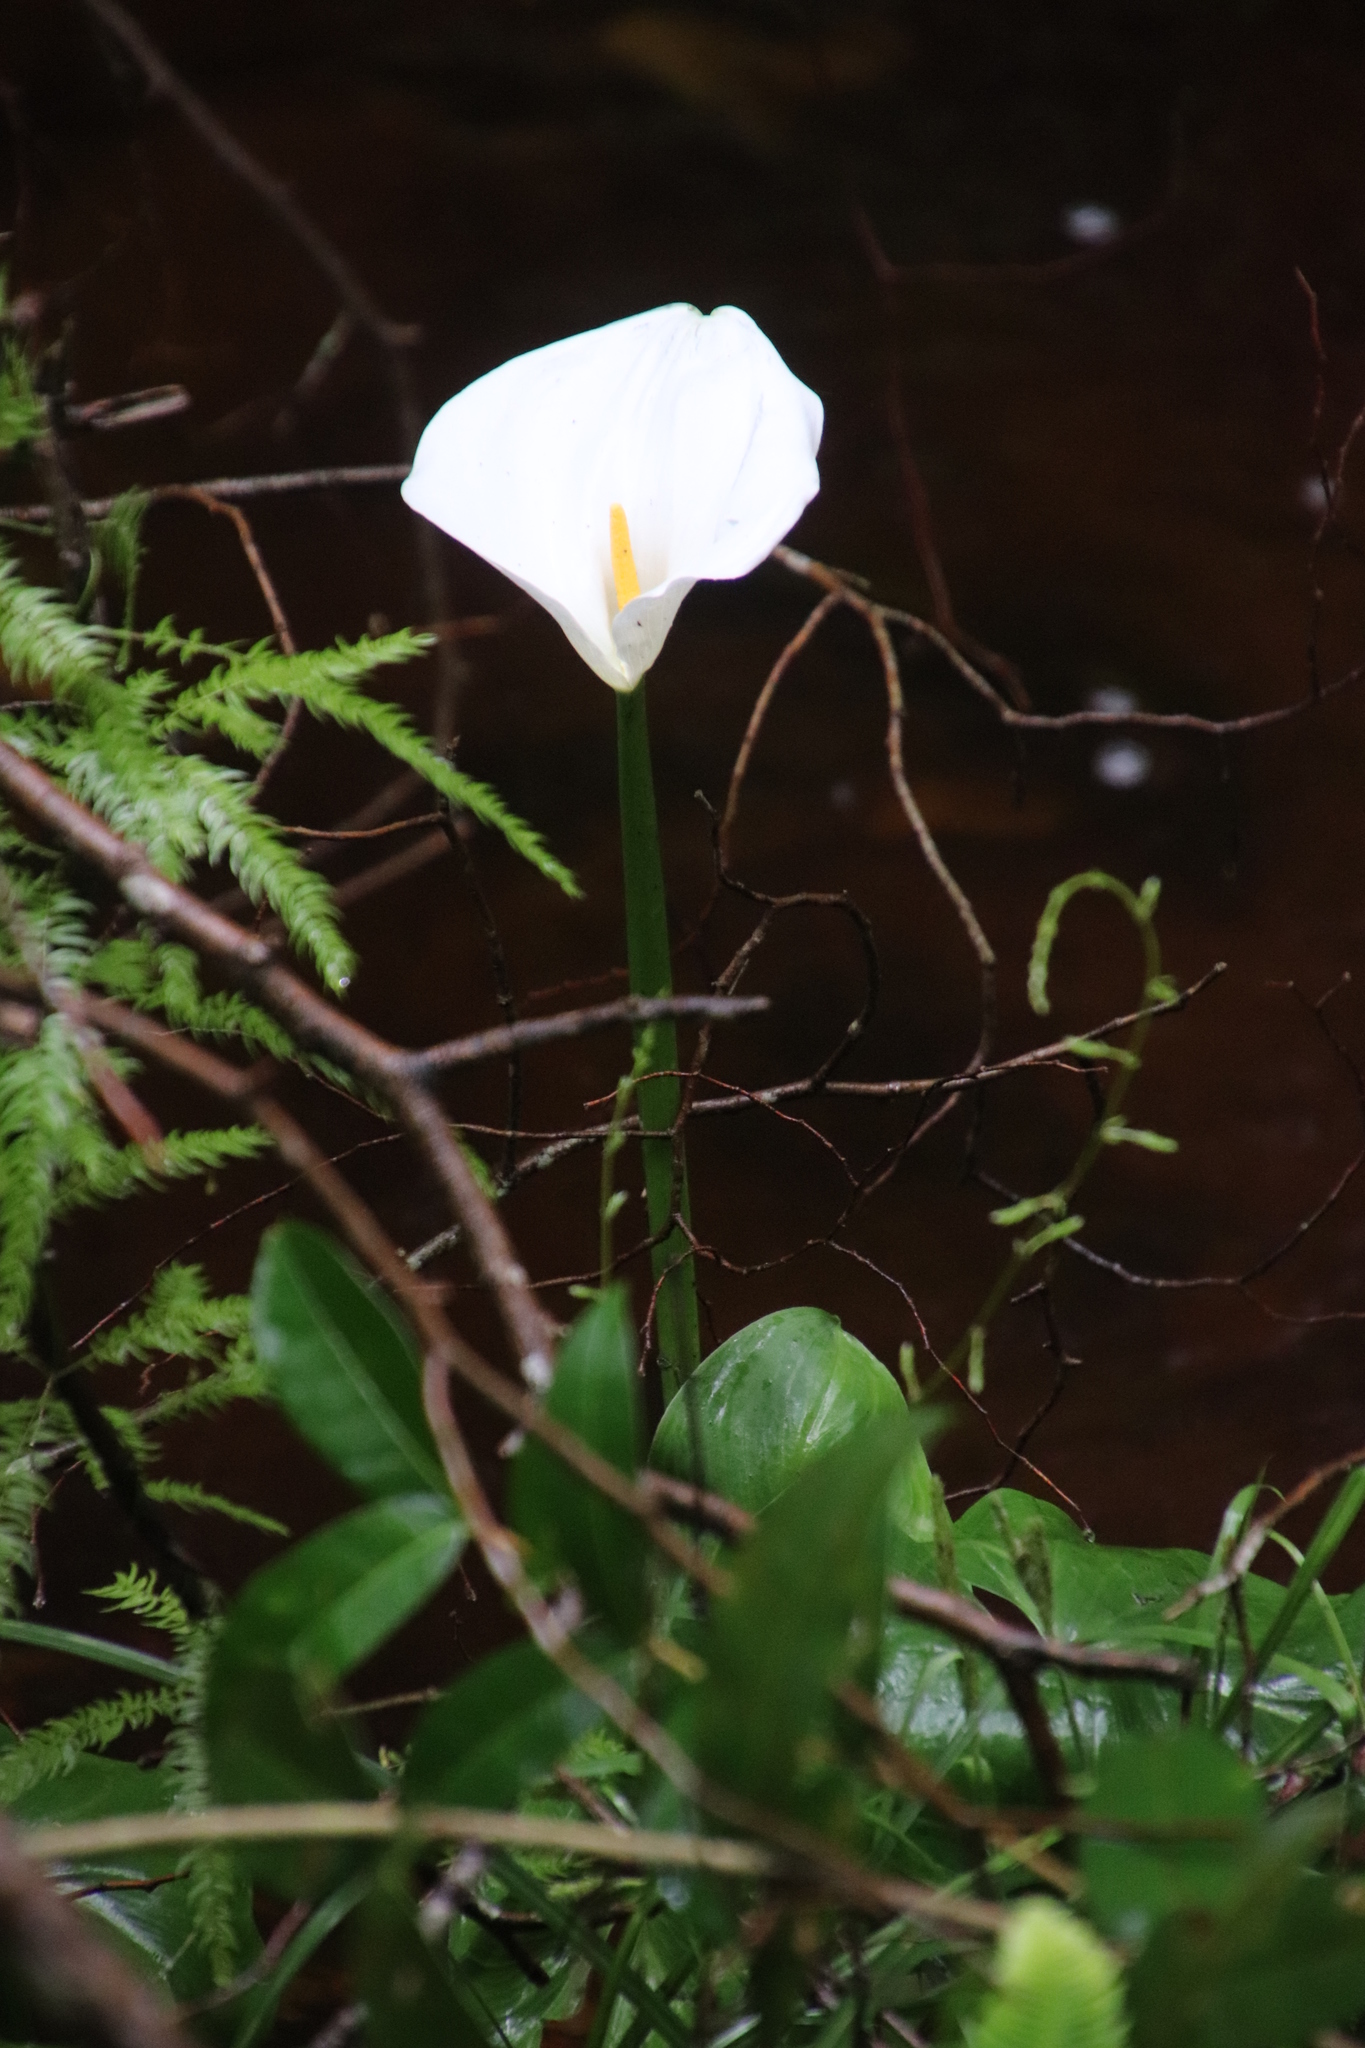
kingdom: Plantae
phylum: Tracheophyta
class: Liliopsida
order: Alismatales
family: Araceae
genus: Zantedeschia
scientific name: Zantedeschia aethiopica
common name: Altar-lily
